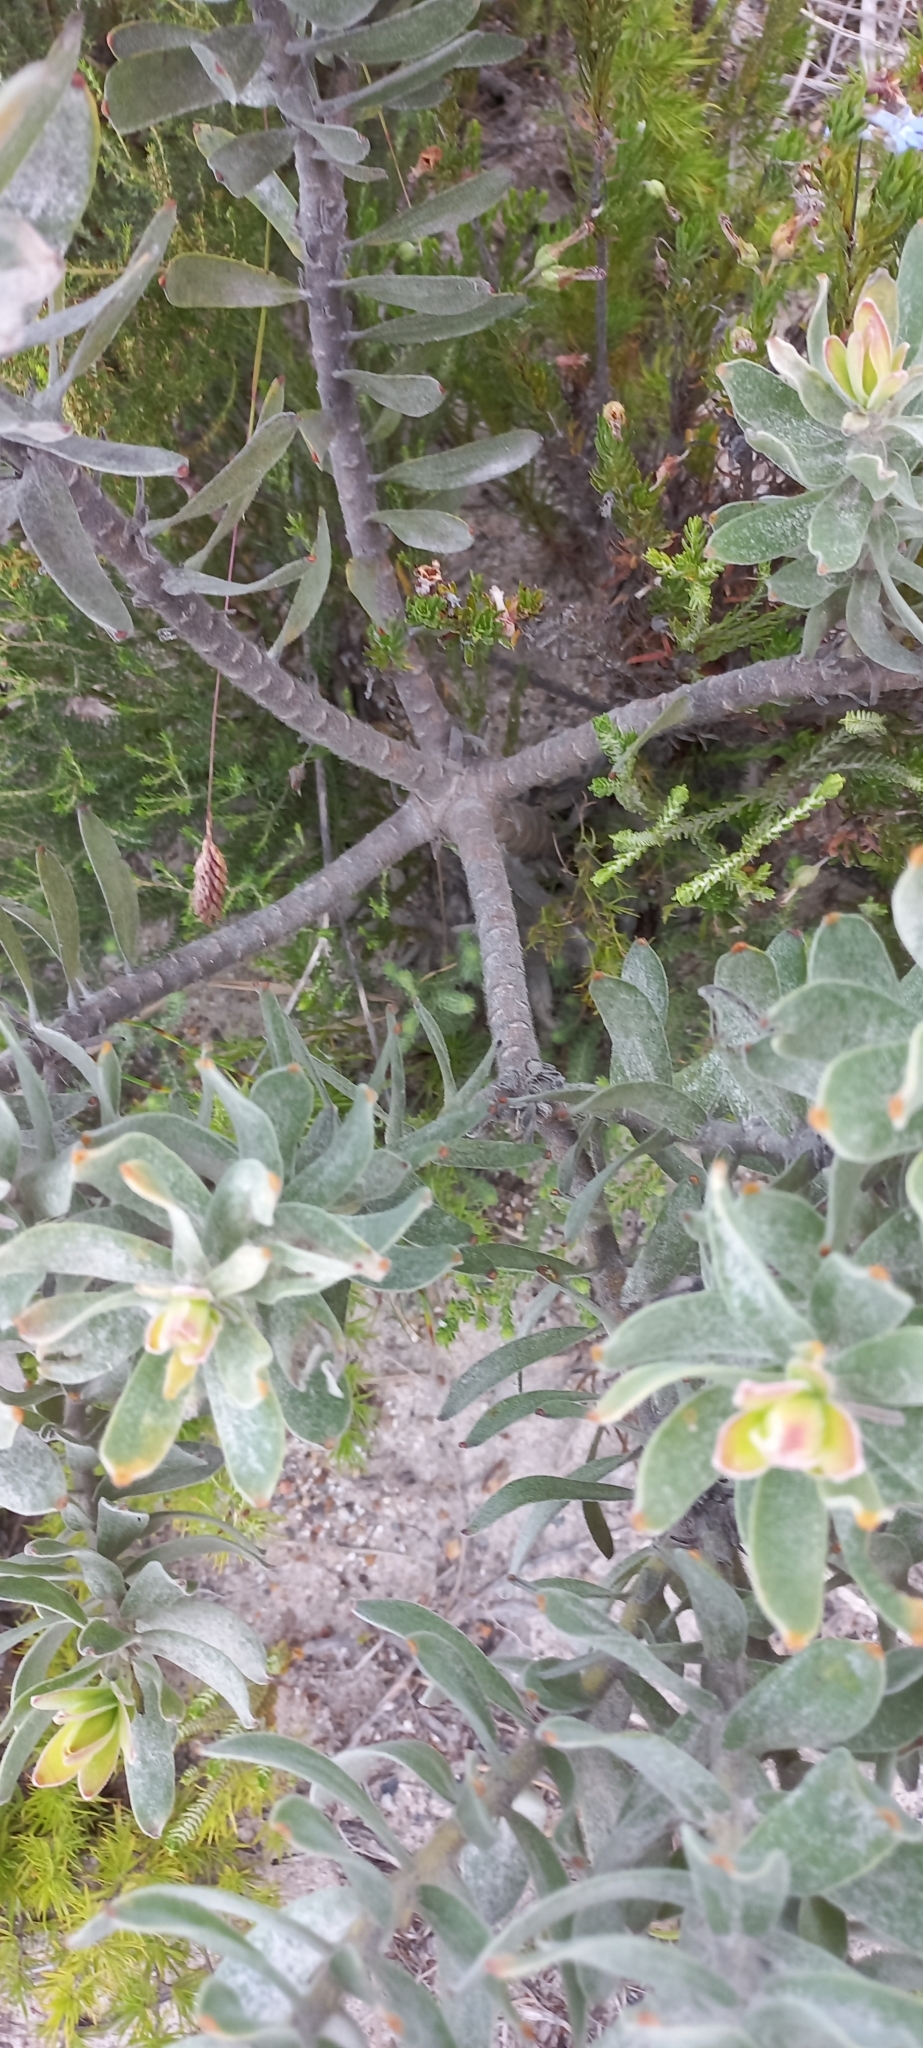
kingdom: Plantae
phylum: Tracheophyta
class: Magnoliopsida
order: Proteales
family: Proteaceae
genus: Leucospermum
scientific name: Leucospermum oleifolium
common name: Matches
